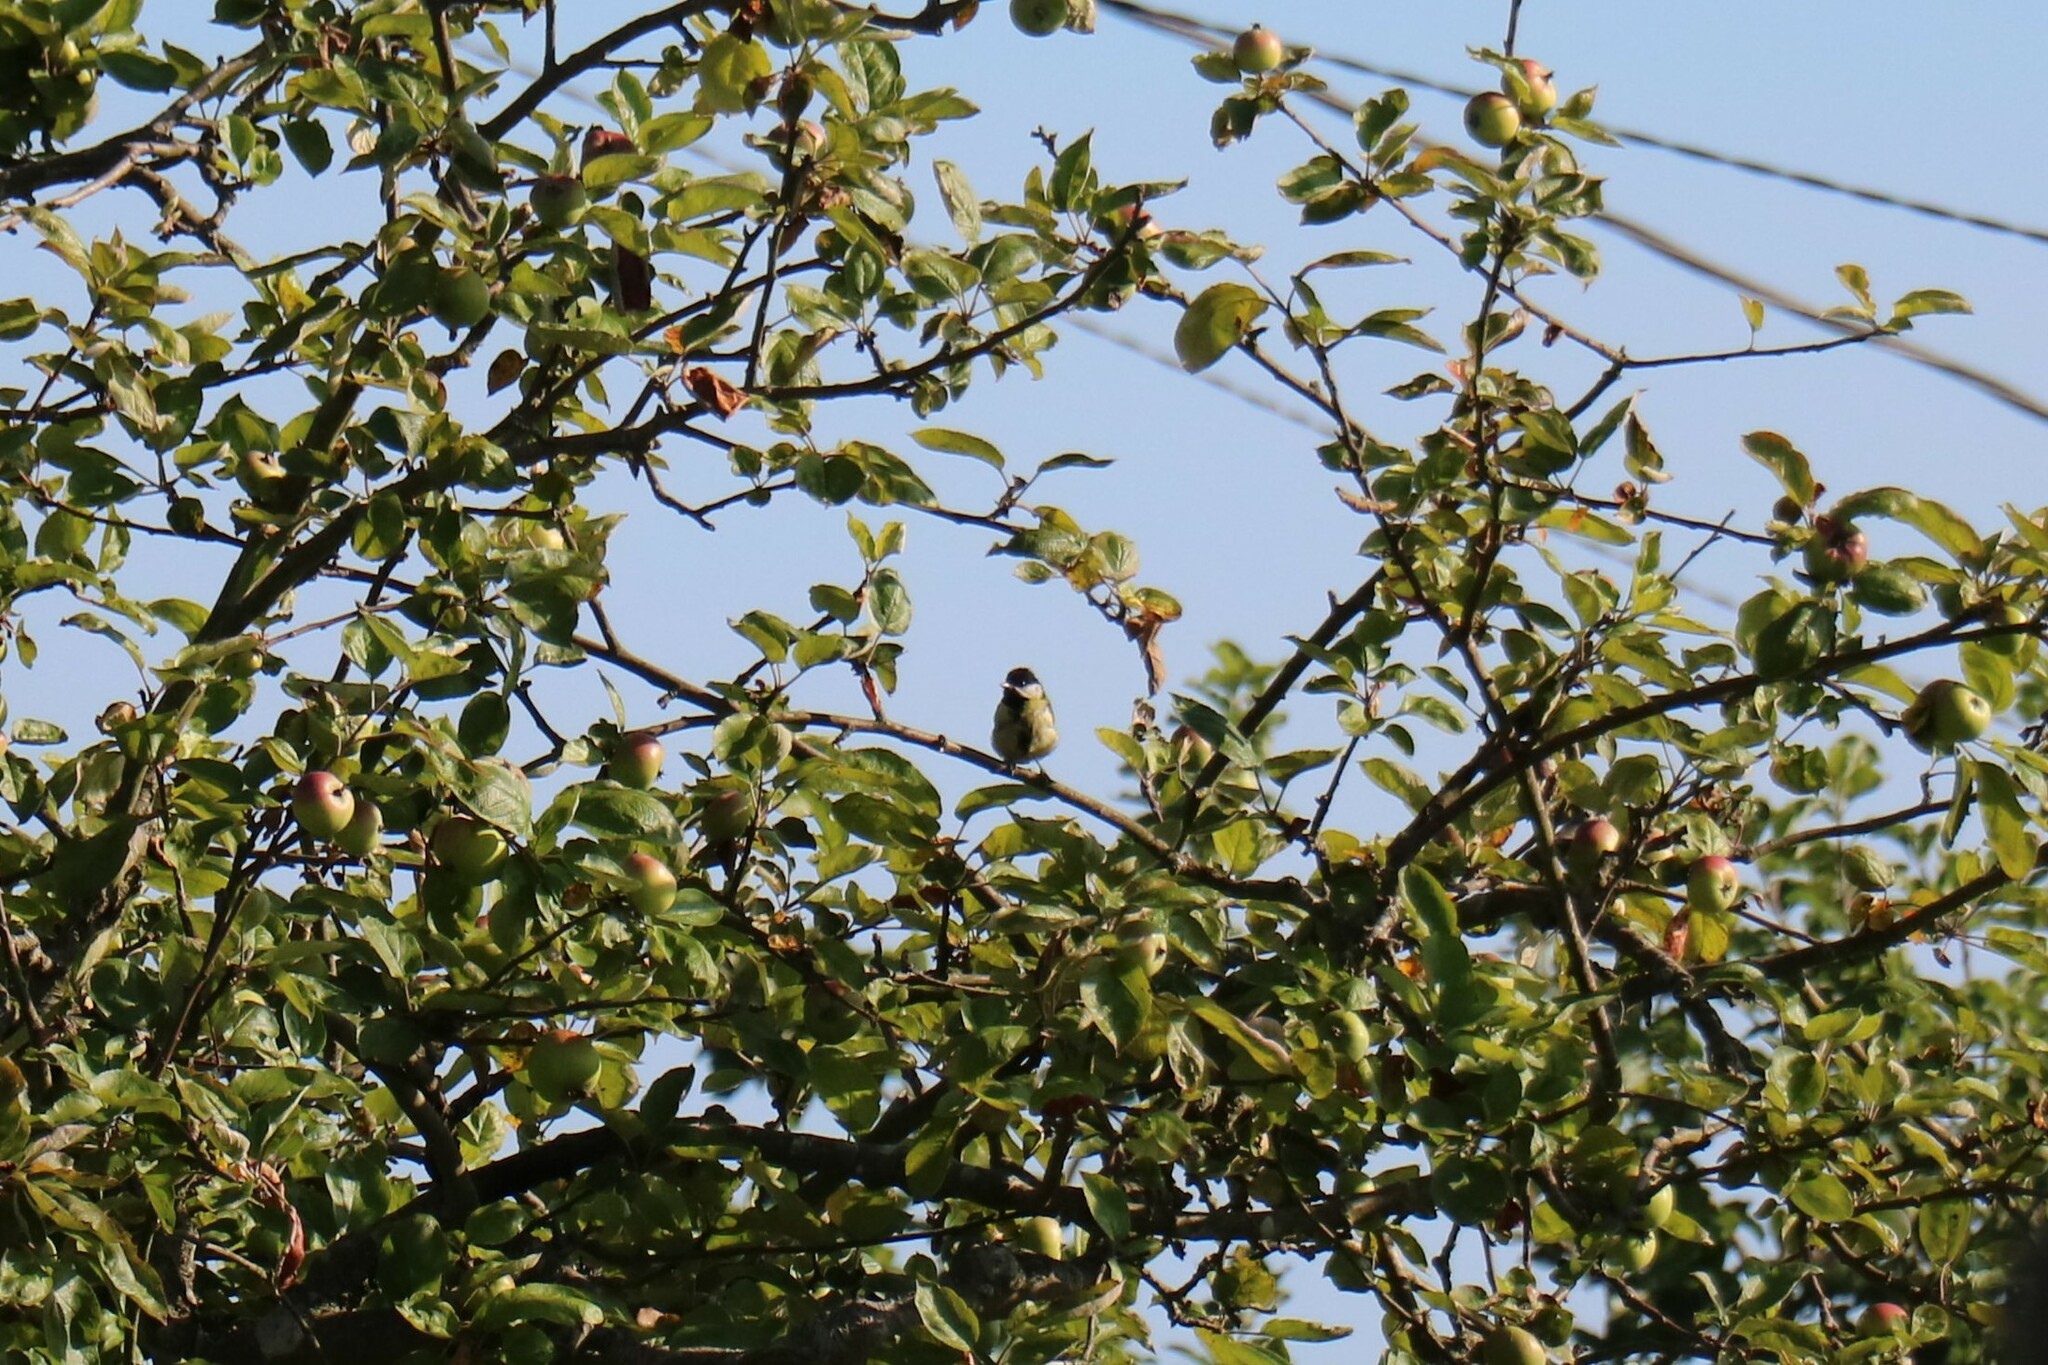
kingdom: Animalia
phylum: Chordata
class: Aves
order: Passeriformes
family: Paridae
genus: Parus
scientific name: Parus major
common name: Great tit
